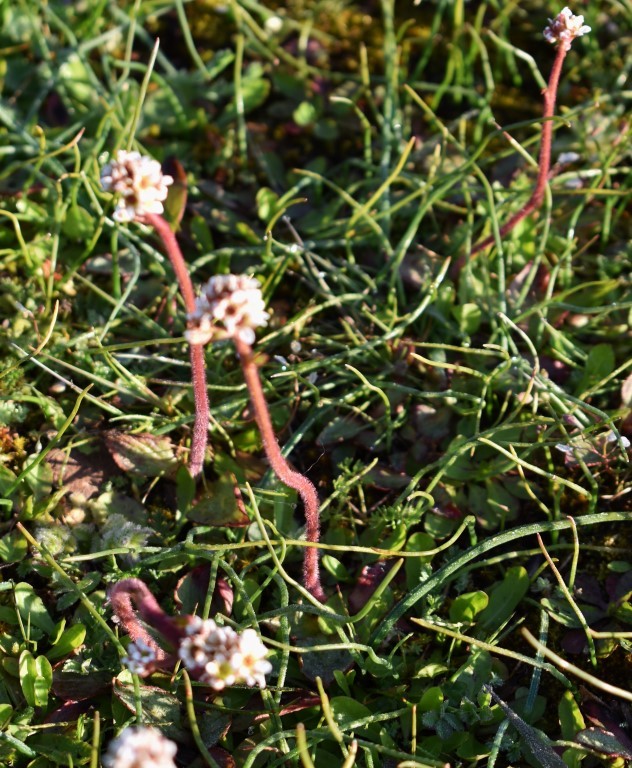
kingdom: Plantae
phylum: Tracheophyta
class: Magnoliopsida
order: Saxifragales
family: Saxifragaceae
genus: Micranthes
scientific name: Micranthes integrifolia
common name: Wholeleaf saxifrage
